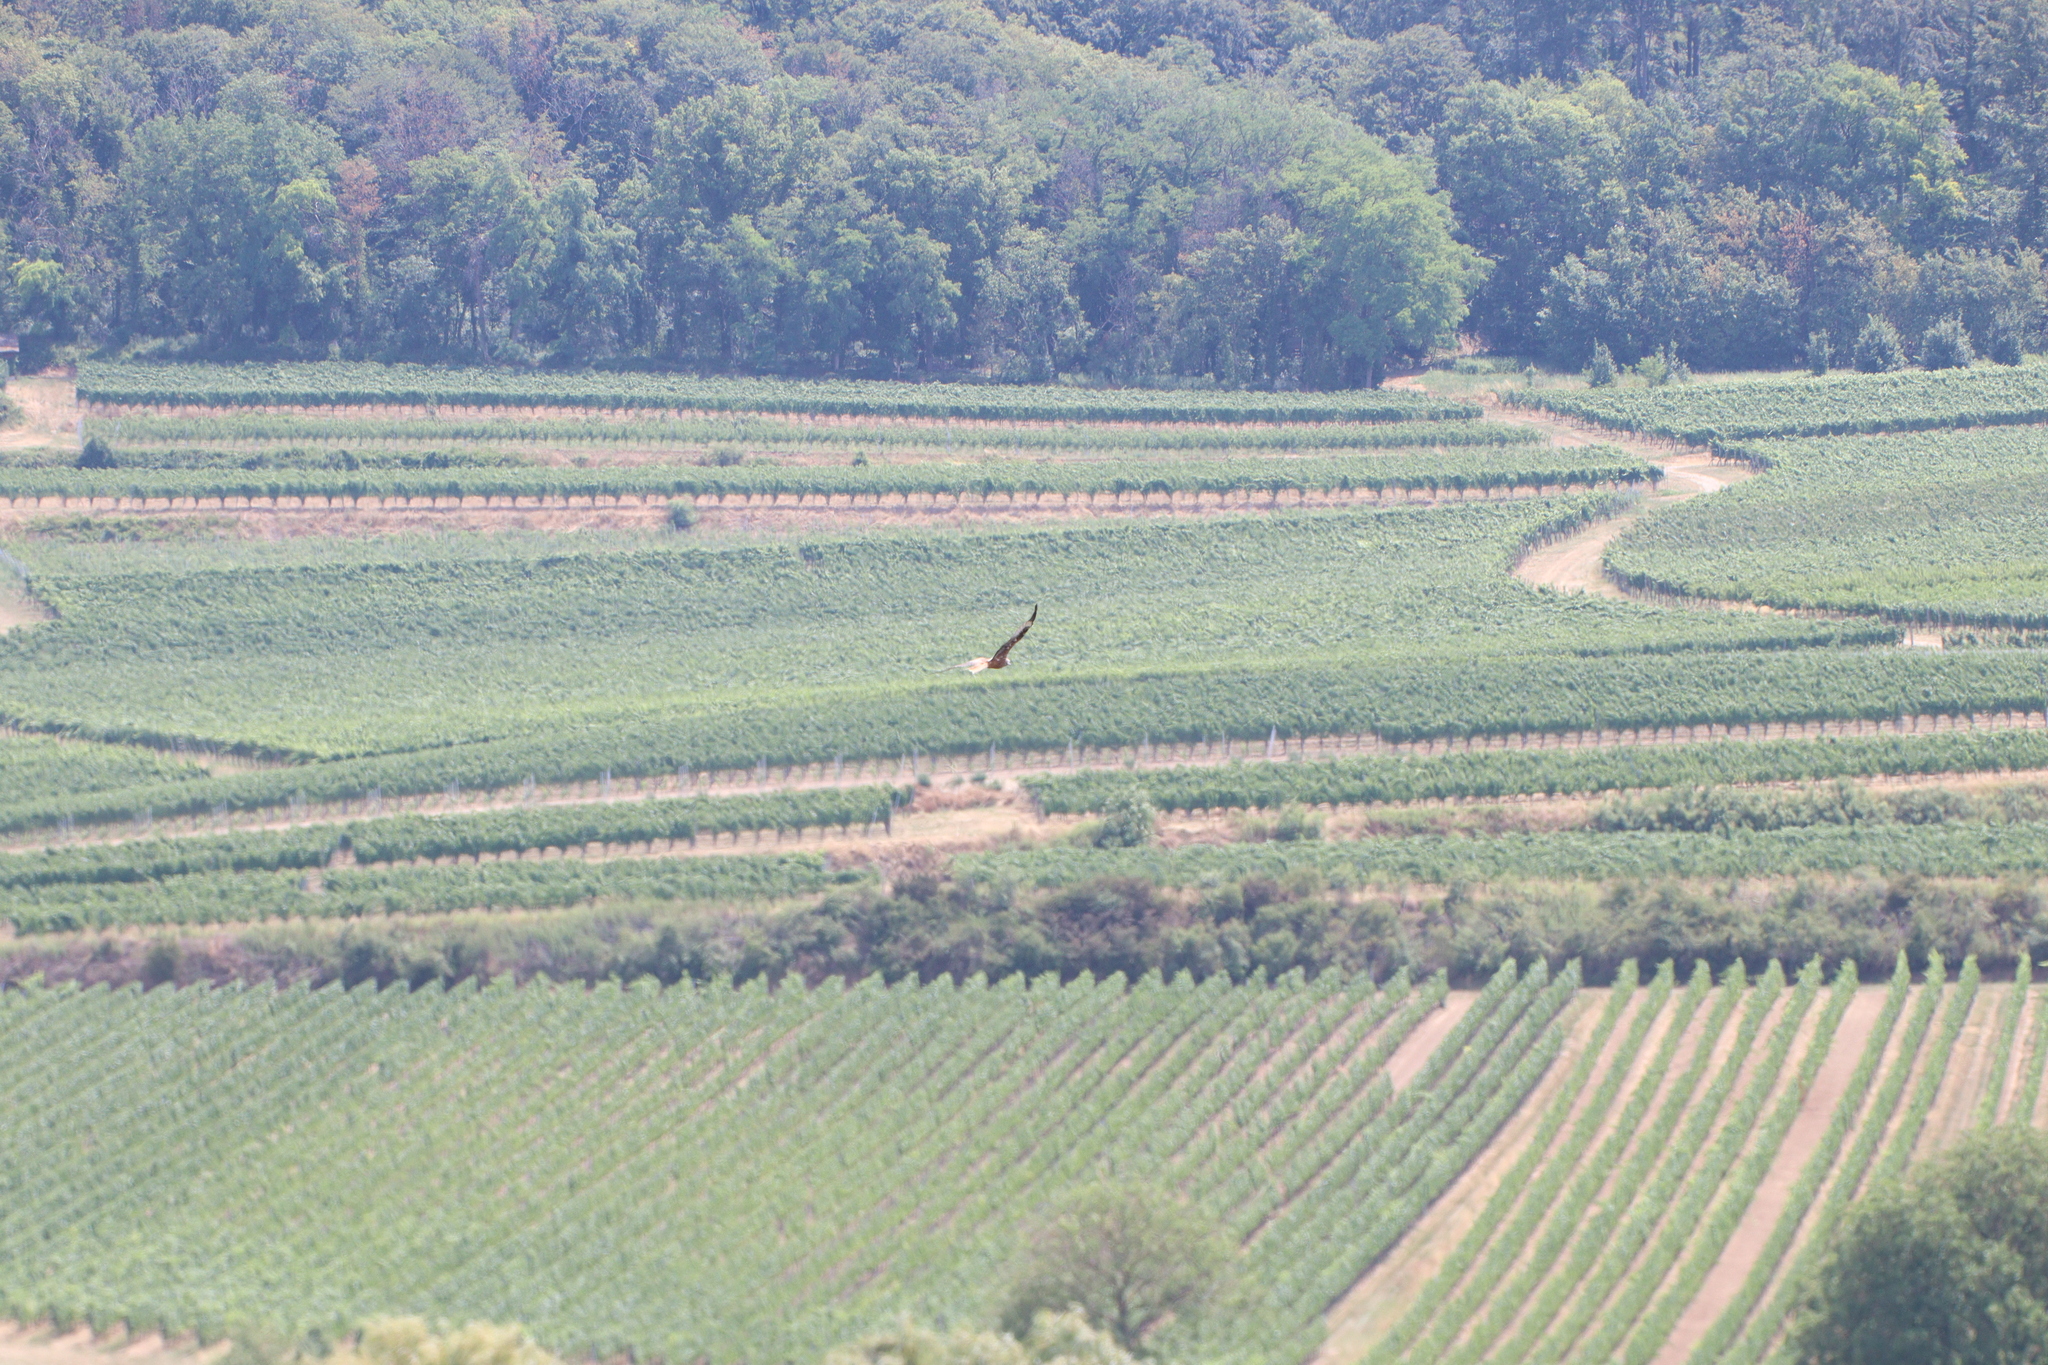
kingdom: Animalia
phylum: Chordata
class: Aves
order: Accipitriformes
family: Accipitridae
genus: Milvus
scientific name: Milvus milvus
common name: Red kite
